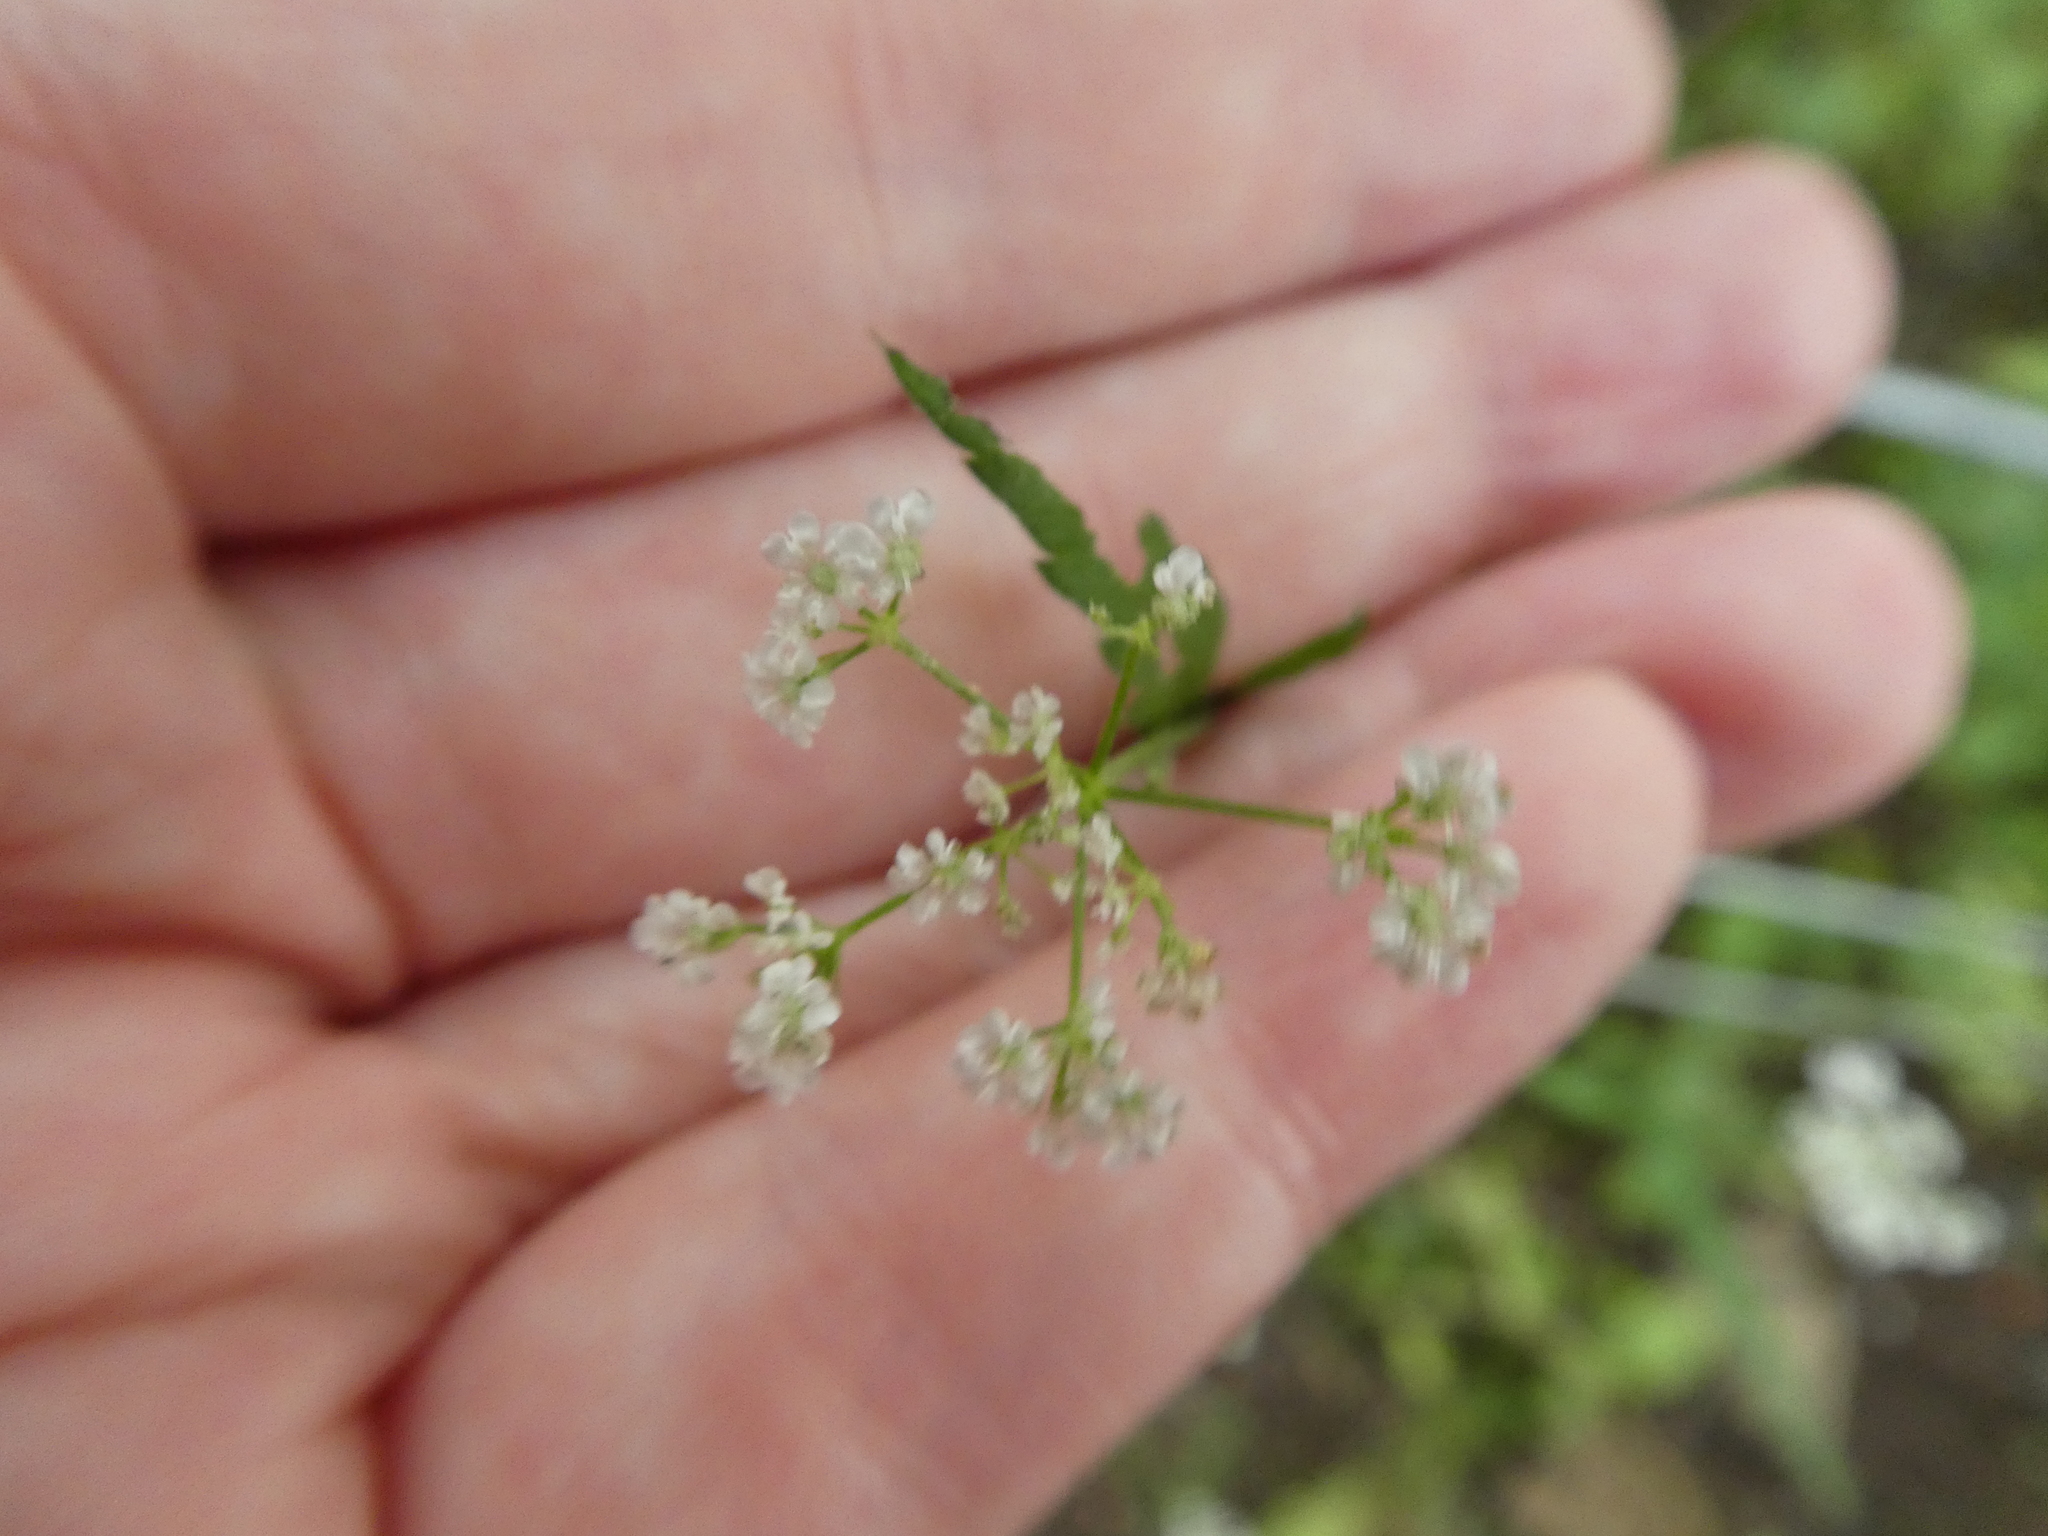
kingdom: Plantae
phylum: Tracheophyta
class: Magnoliopsida
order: Apiales
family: Apiaceae
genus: Torilis
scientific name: Torilis japonica
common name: Upright hedge-parsley
